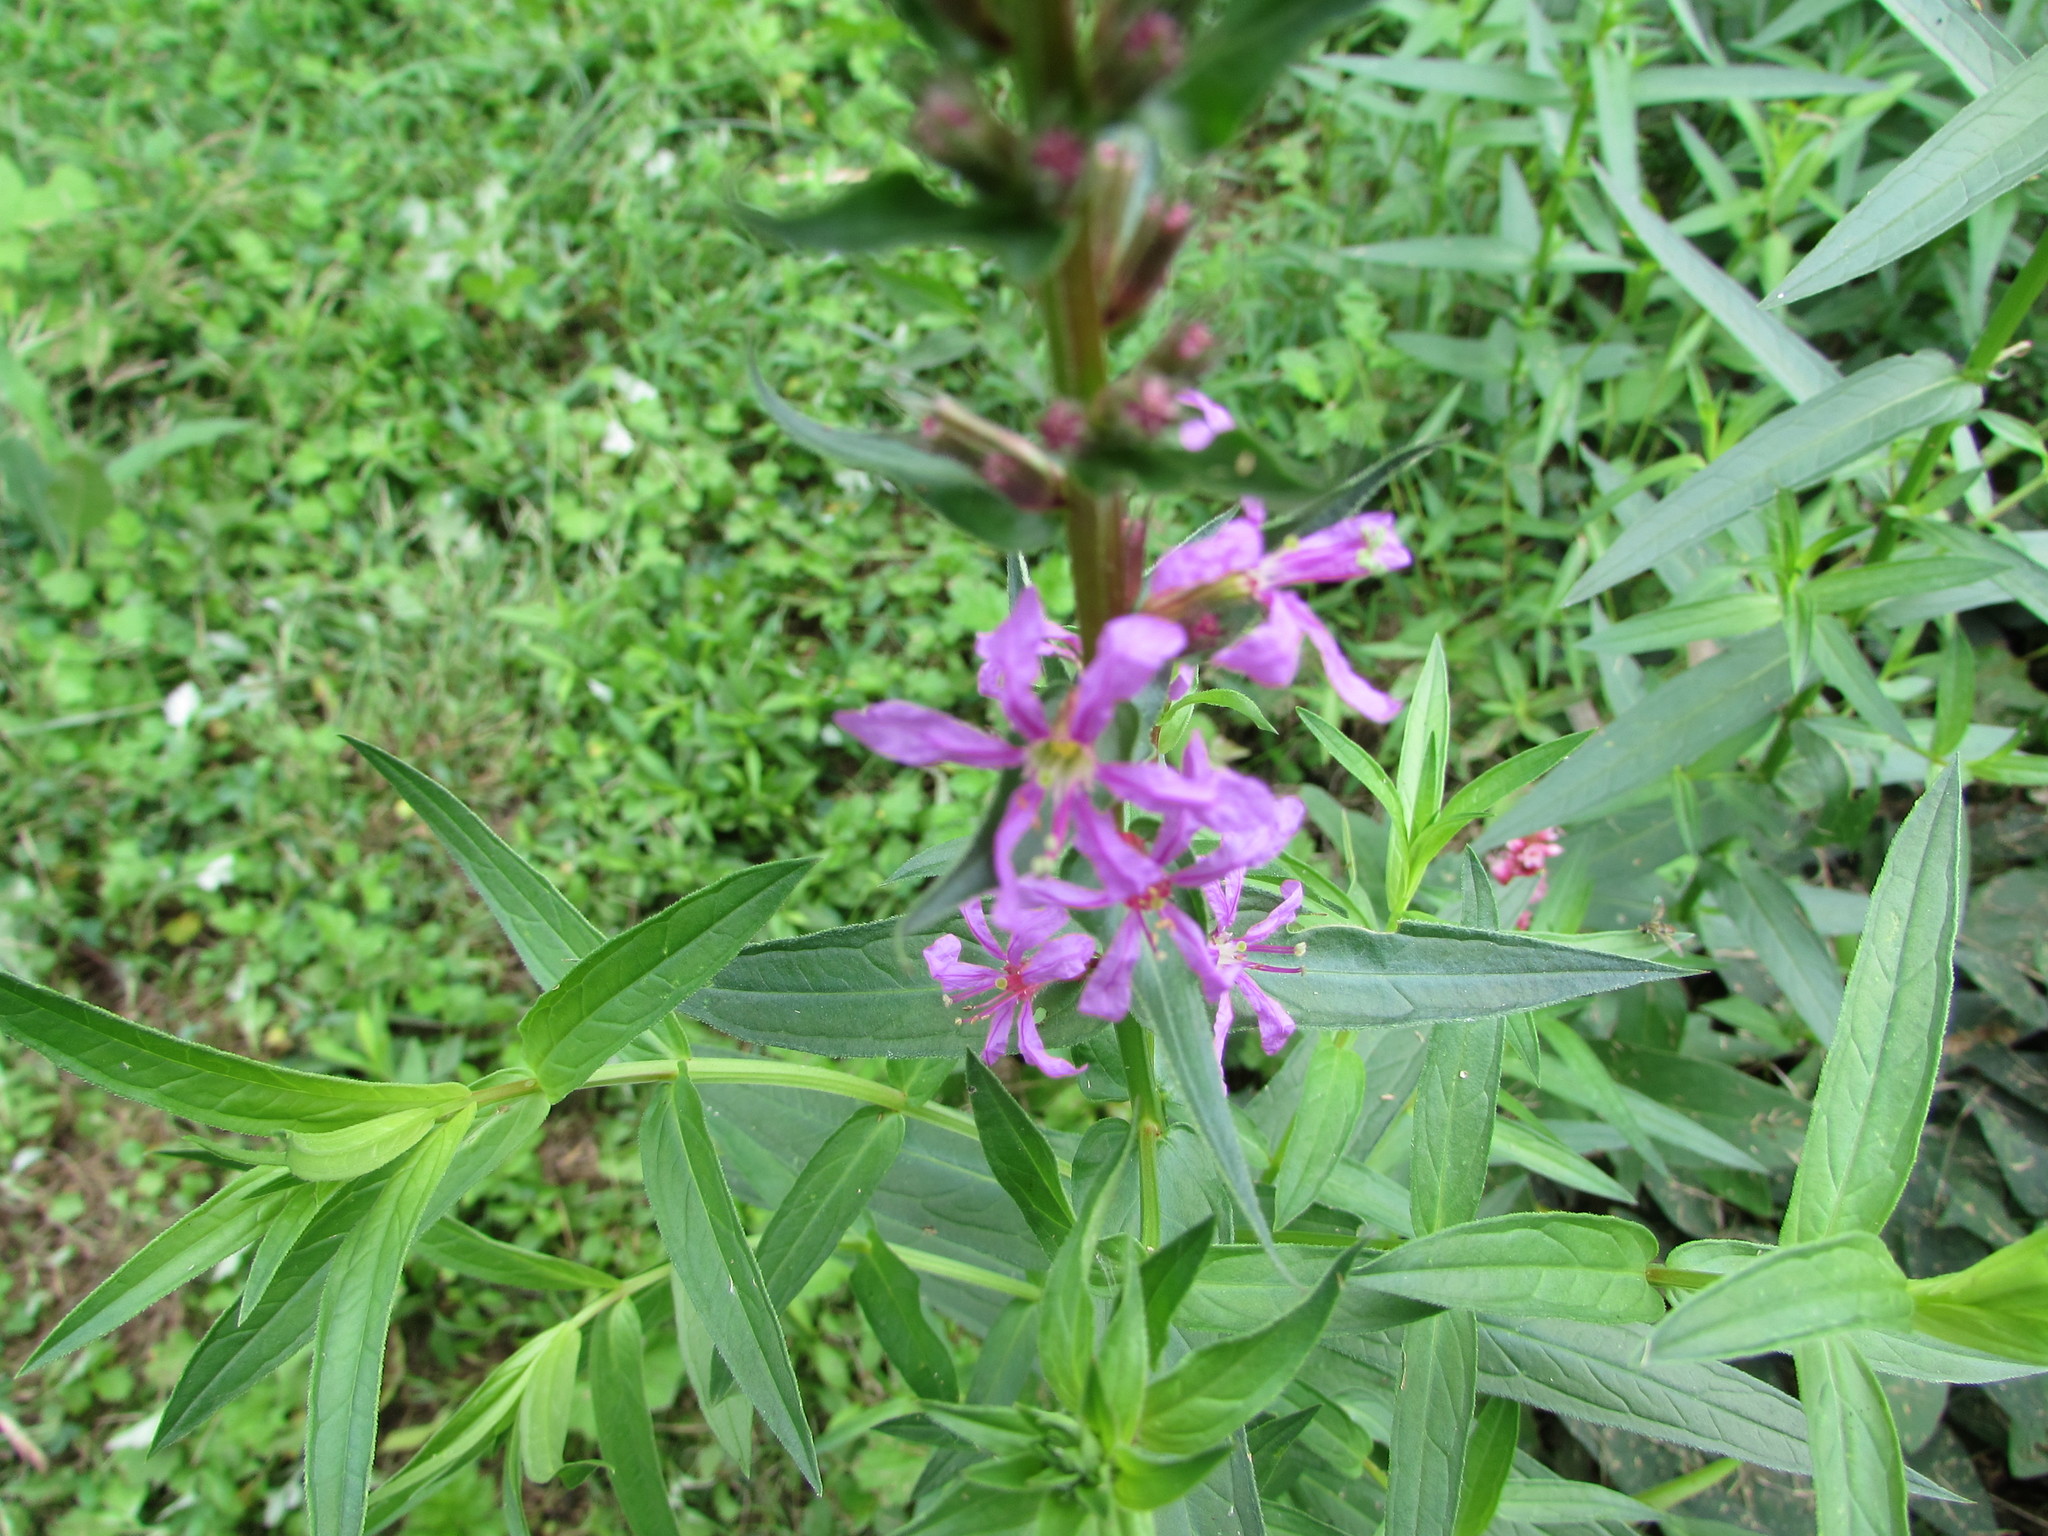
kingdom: Plantae
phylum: Tracheophyta
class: Magnoliopsida
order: Myrtales
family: Lythraceae
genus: Lythrum
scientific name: Lythrum salicaria
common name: Purple loosestrife
